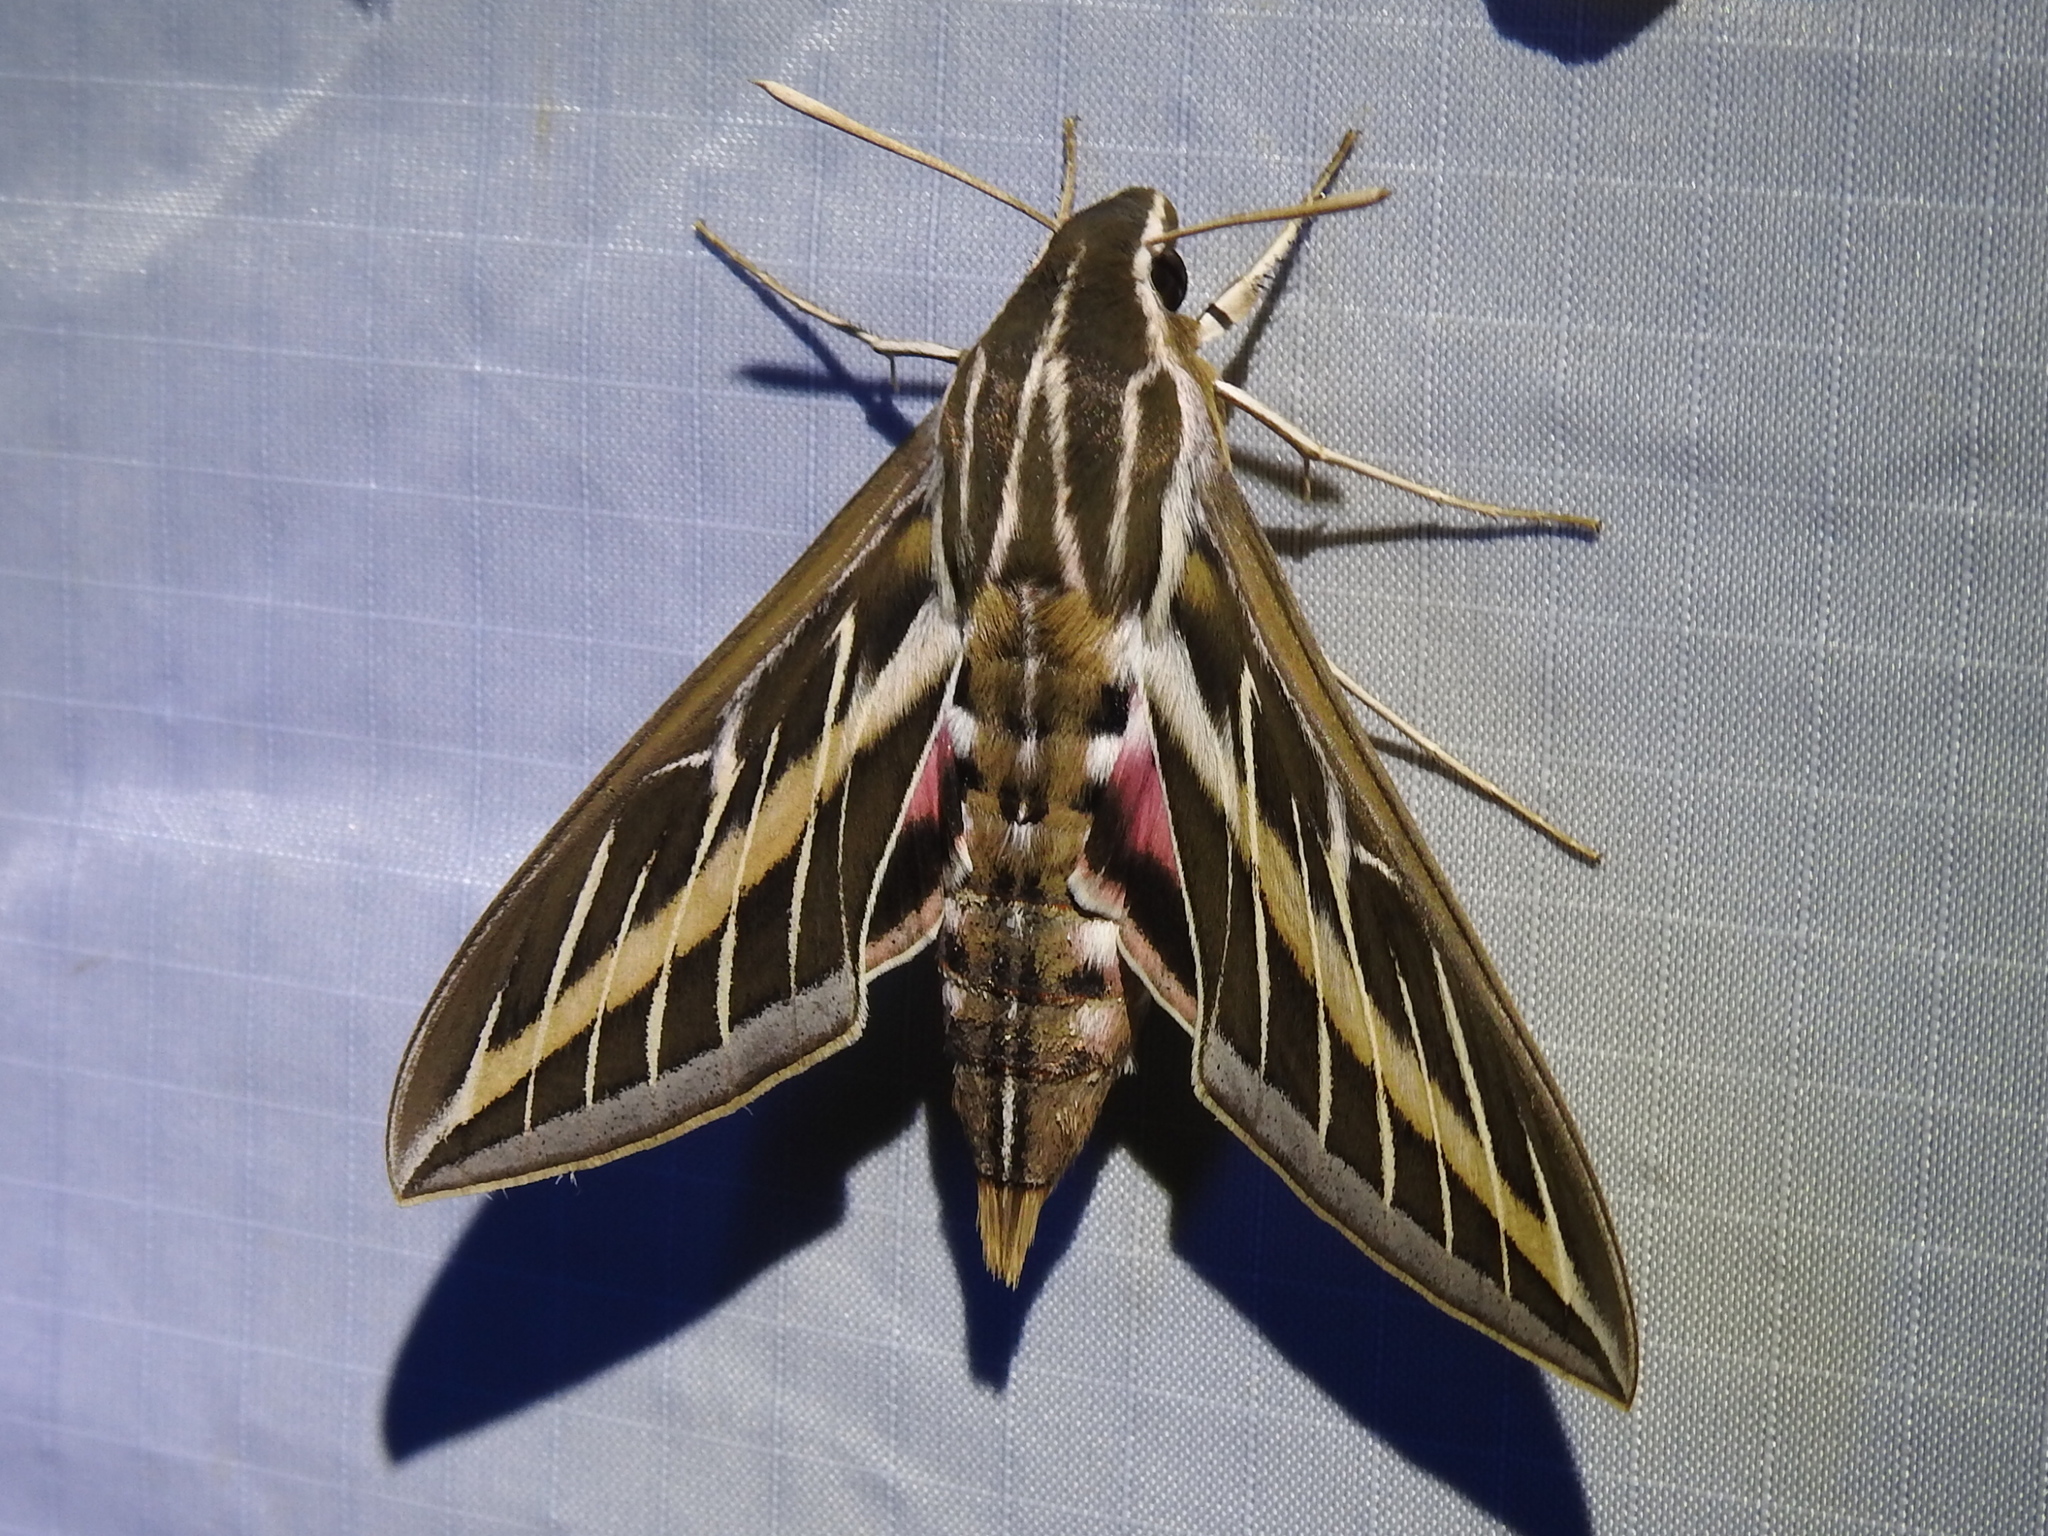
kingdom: Animalia
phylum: Arthropoda
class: Insecta
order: Lepidoptera
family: Sphingidae
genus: Hyles
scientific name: Hyles lineata
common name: White-lined sphinx
